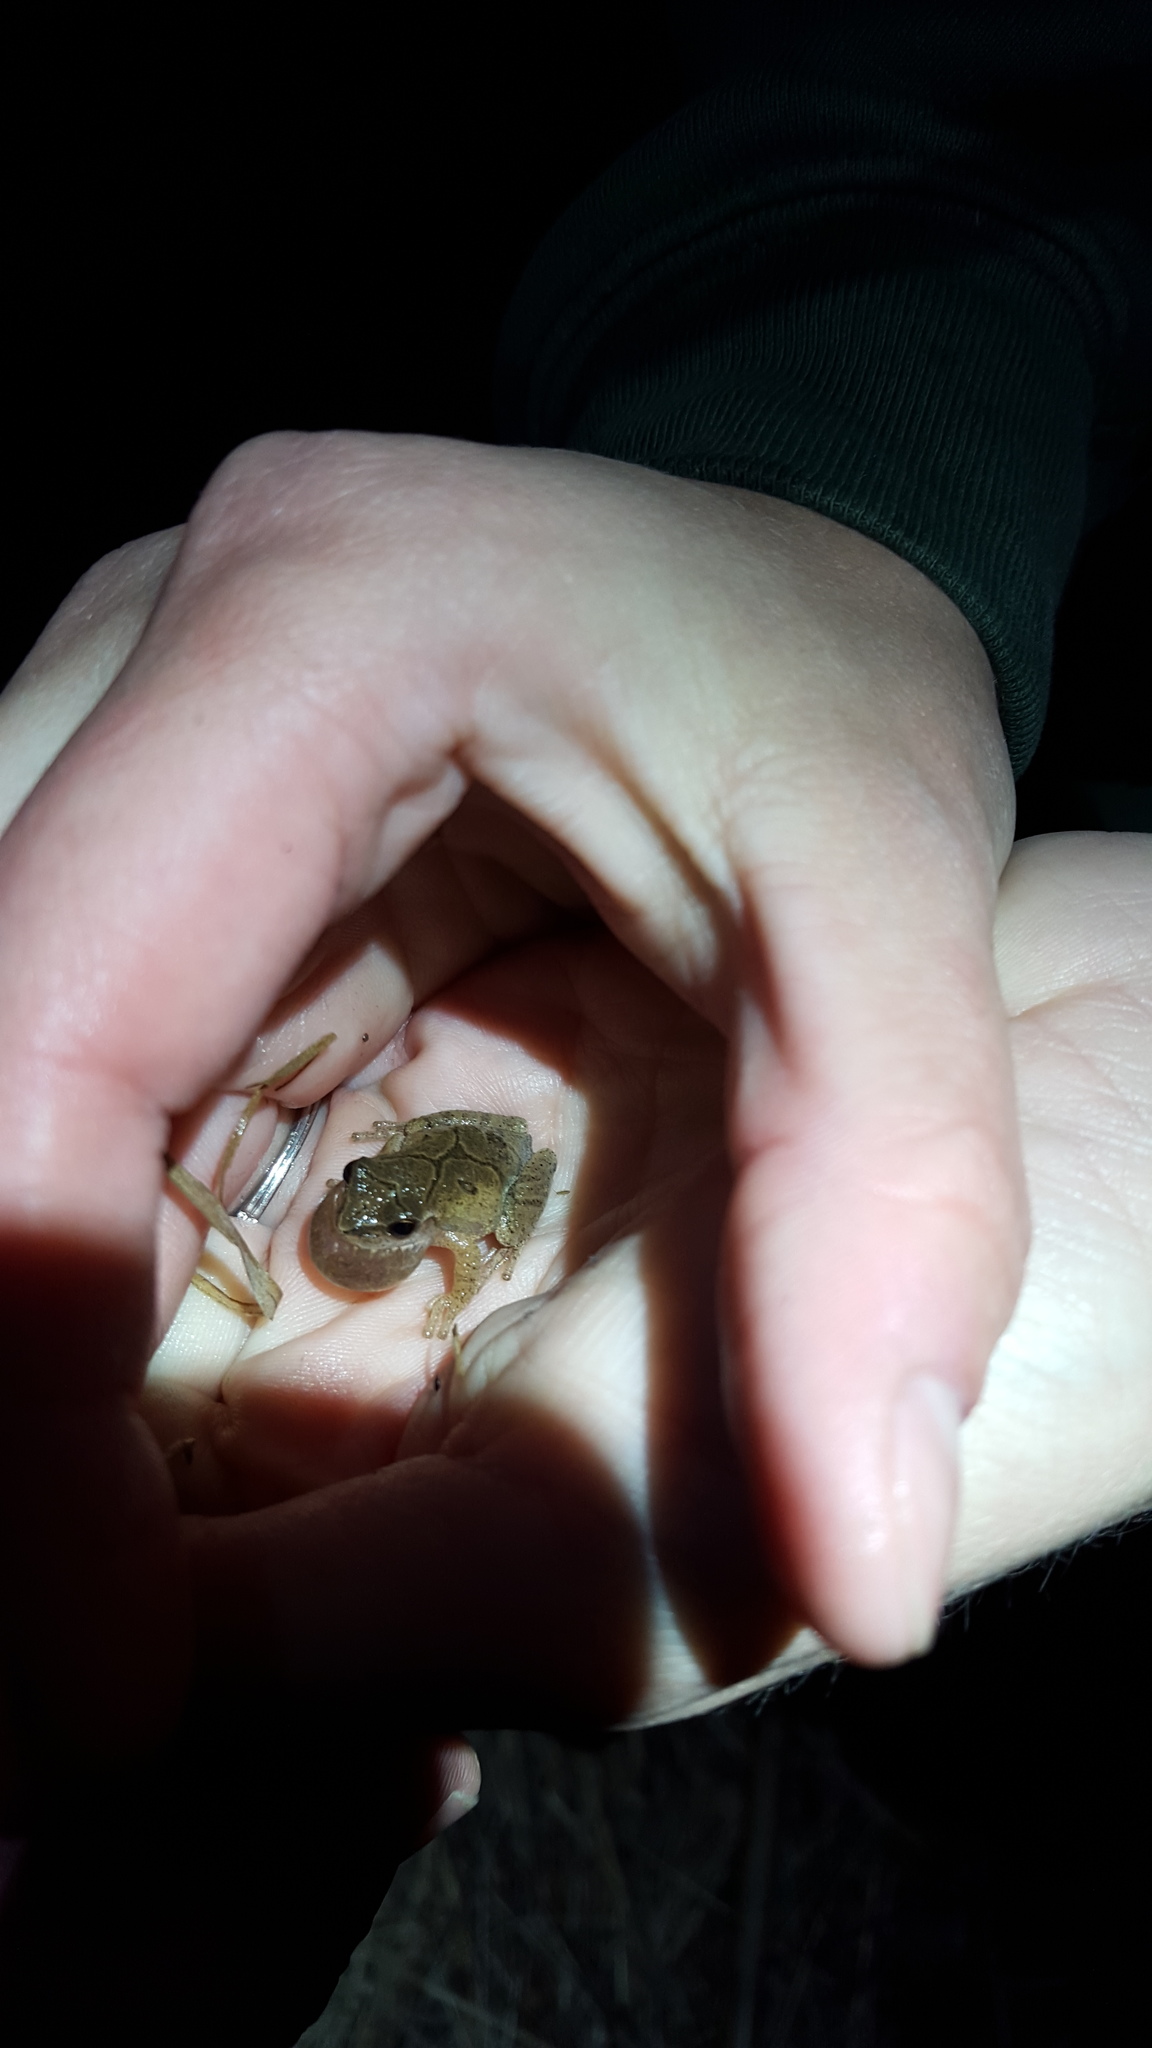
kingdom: Animalia
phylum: Chordata
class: Amphibia
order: Anura
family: Hylidae
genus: Pseudacris
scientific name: Pseudacris crucifer
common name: Spring peeper
